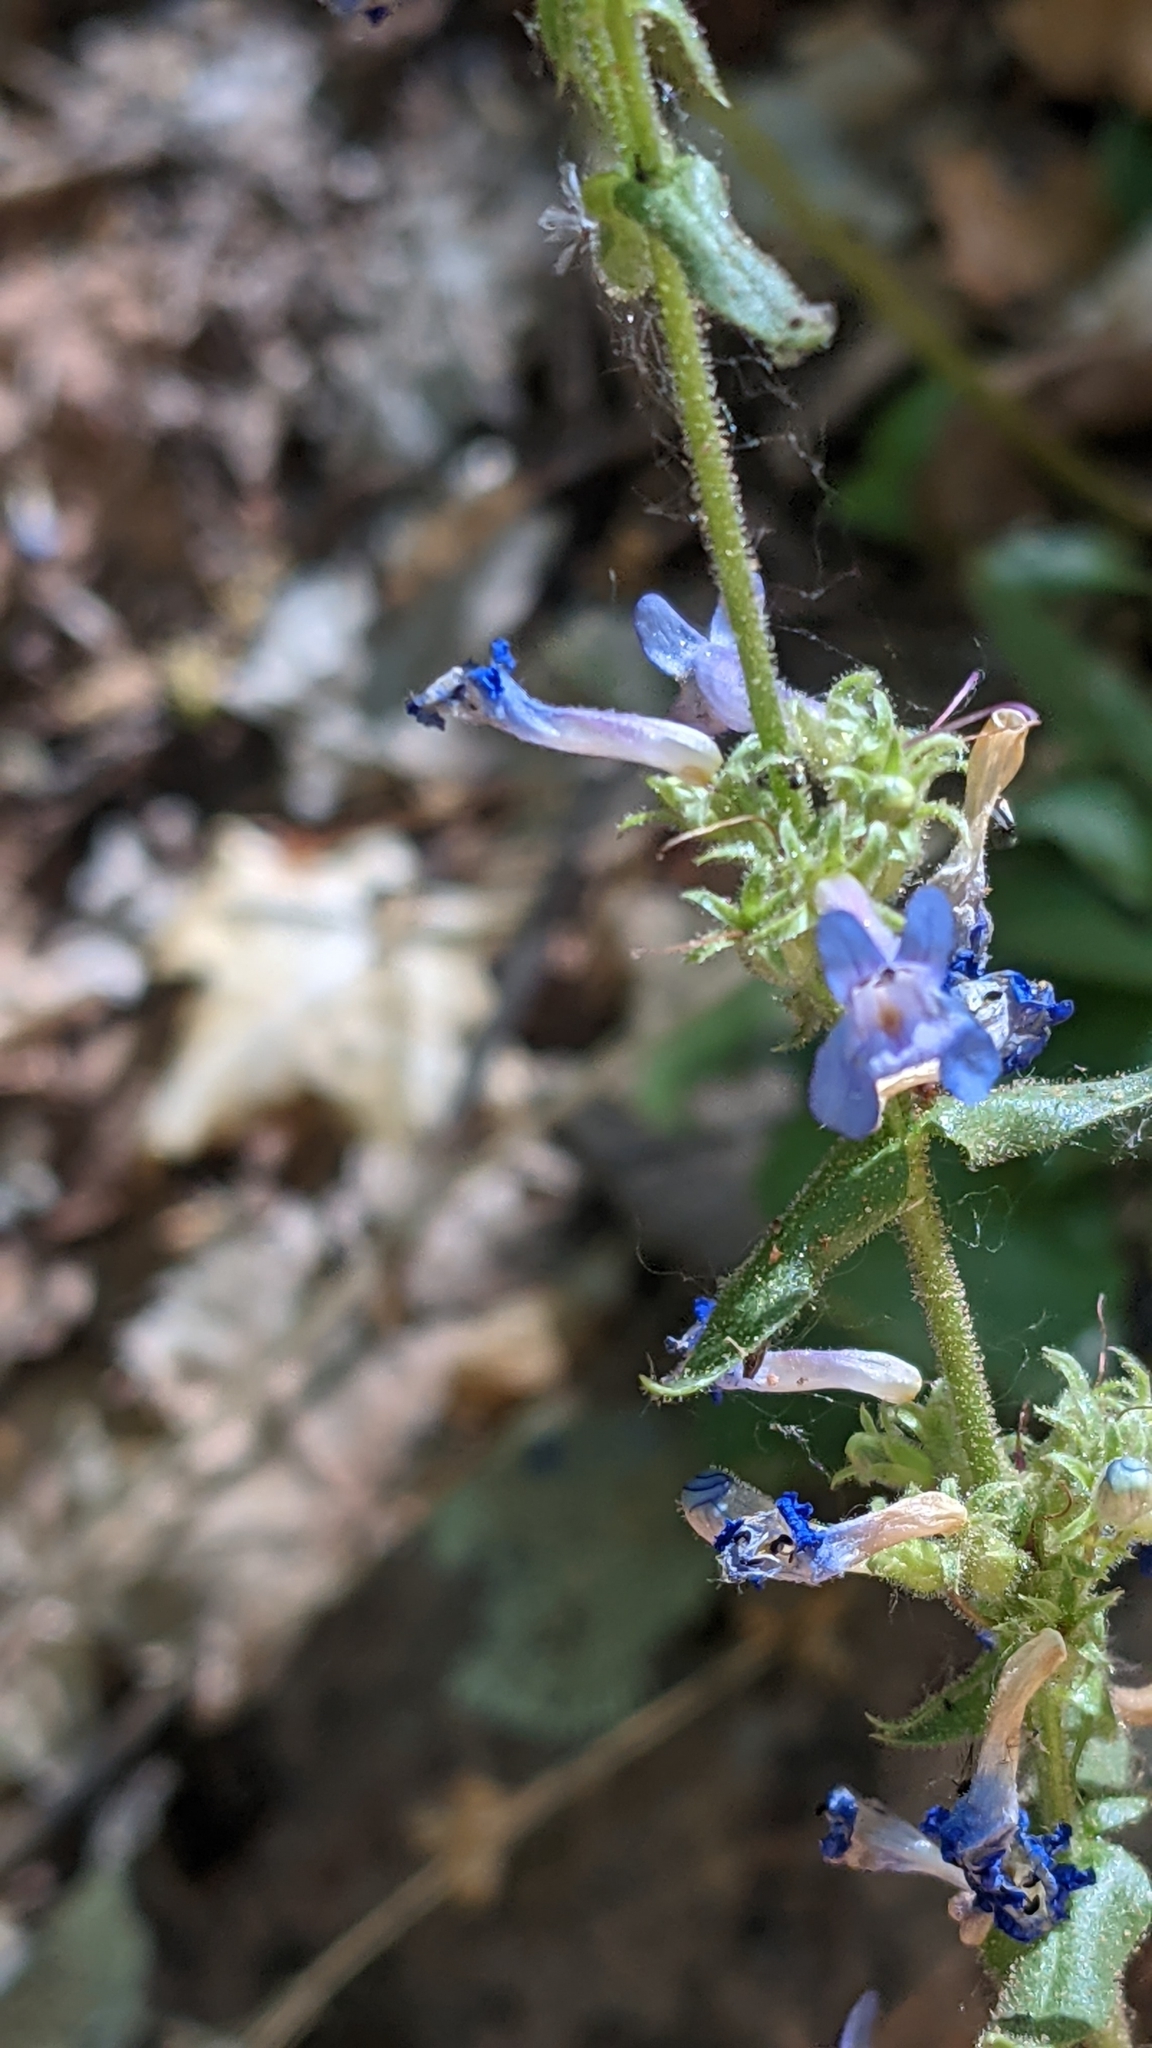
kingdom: Plantae
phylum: Tracheophyta
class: Magnoliopsida
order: Lamiales
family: Plantaginaceae
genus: Penstemon
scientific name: Penstemon humilis
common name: Low penstemon
